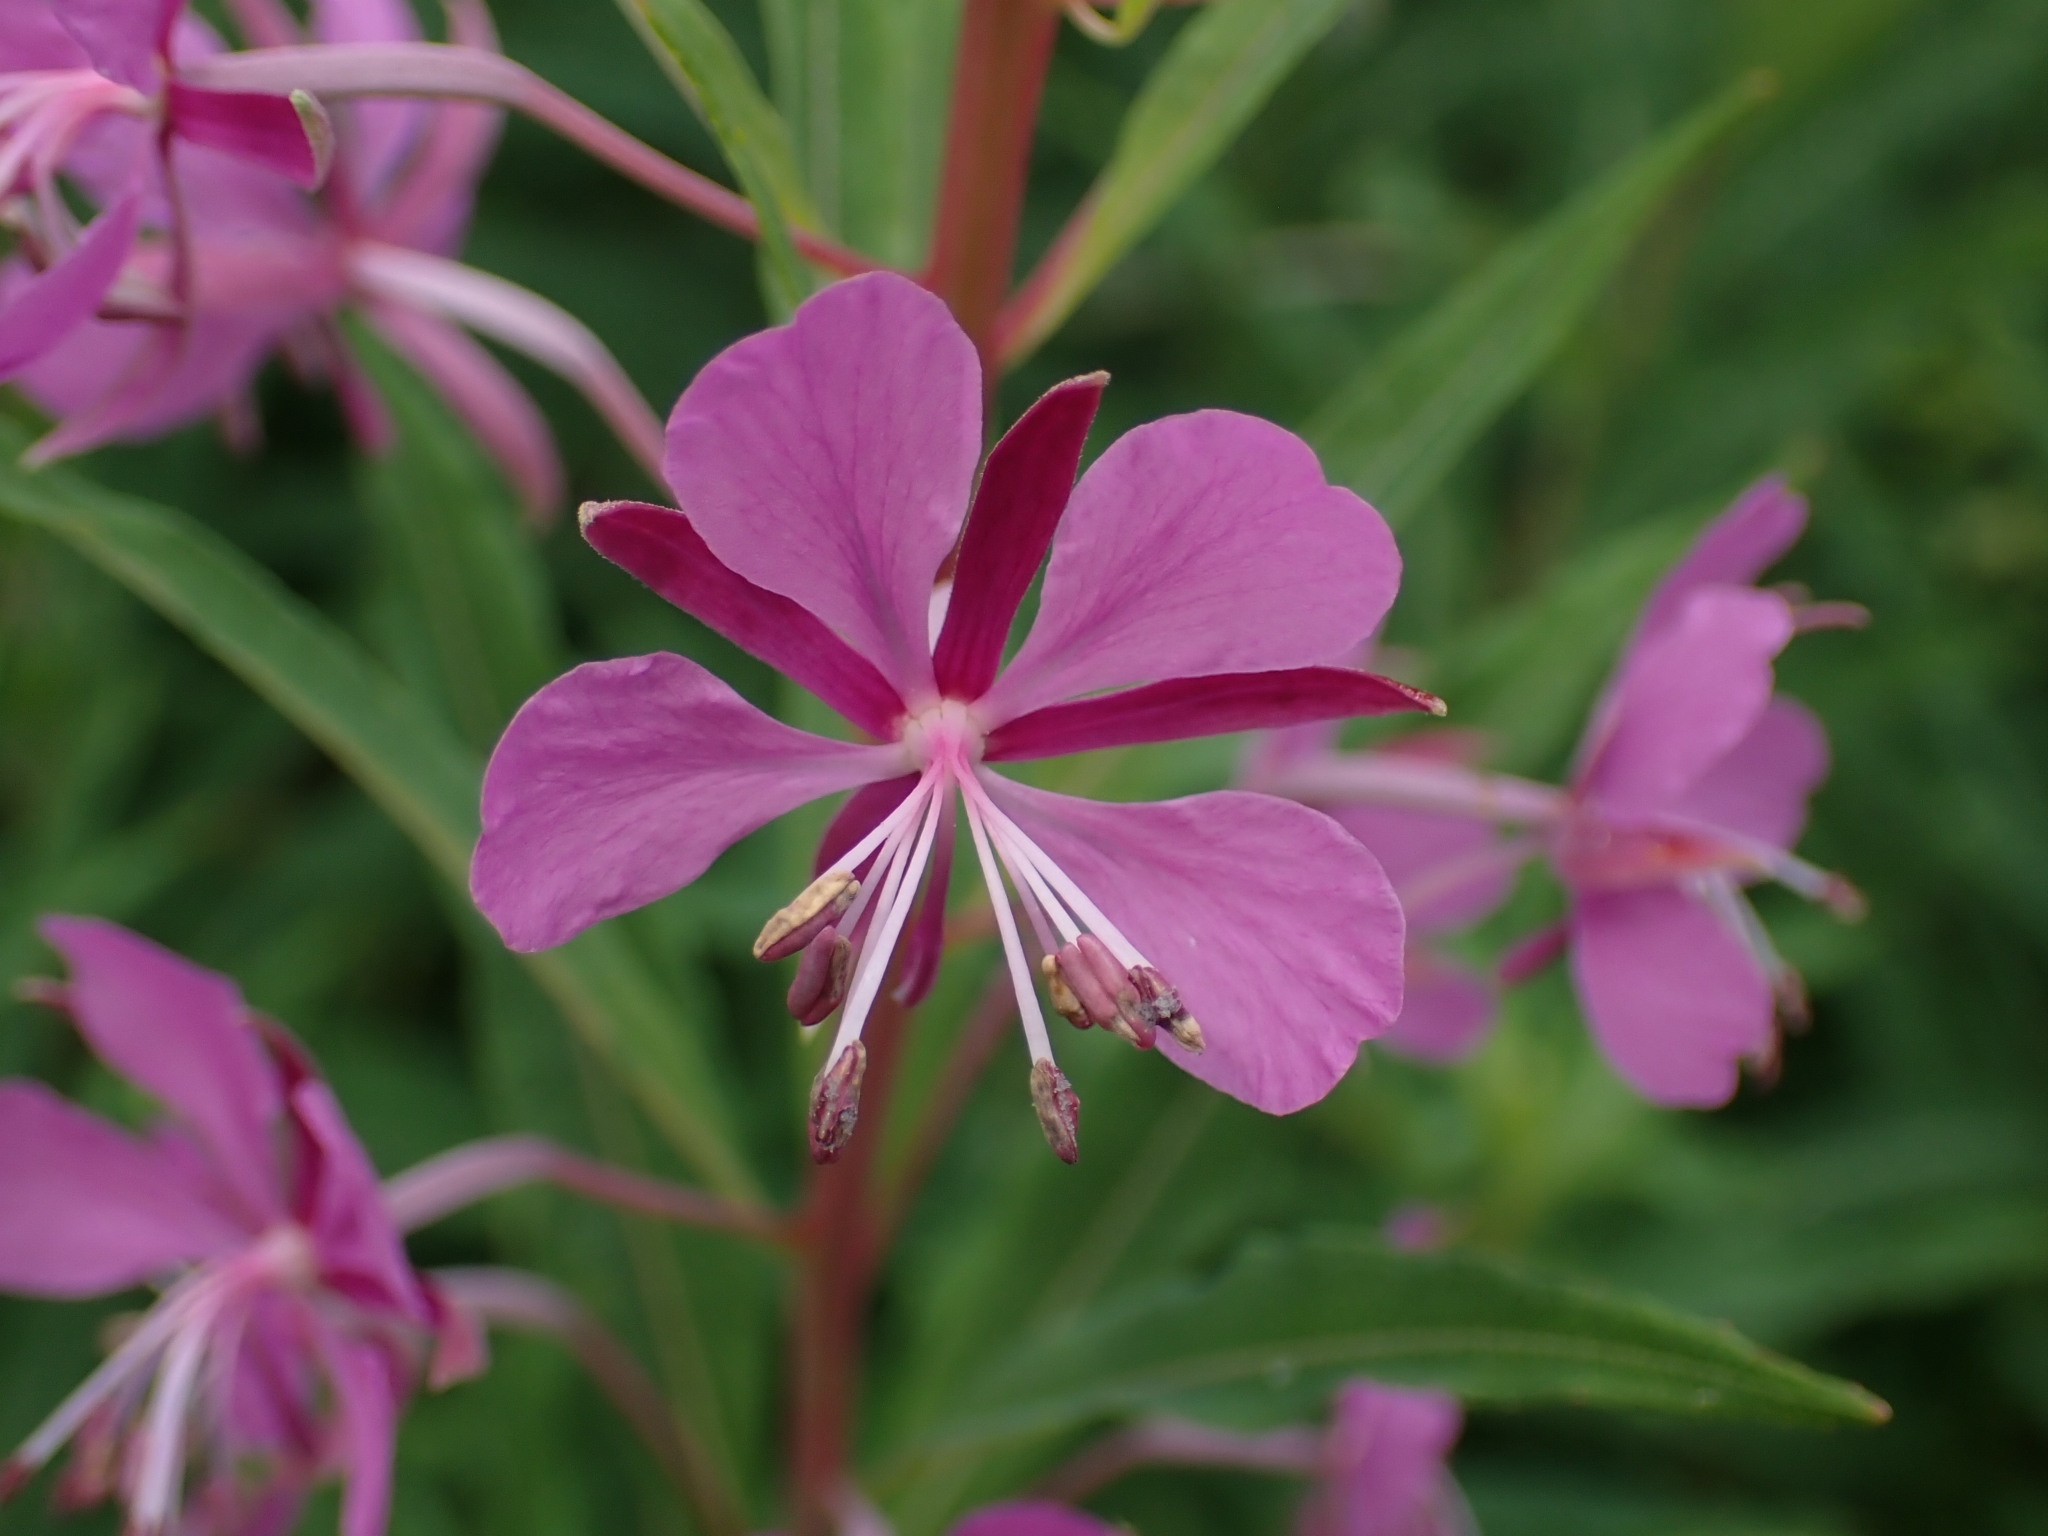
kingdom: Plantae
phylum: Tracheophyta
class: Magnoliopsida
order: Myrtales
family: Onagraceae
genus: Chamaenerion
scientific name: Chamaenerion angustifolium
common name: Fireweed
